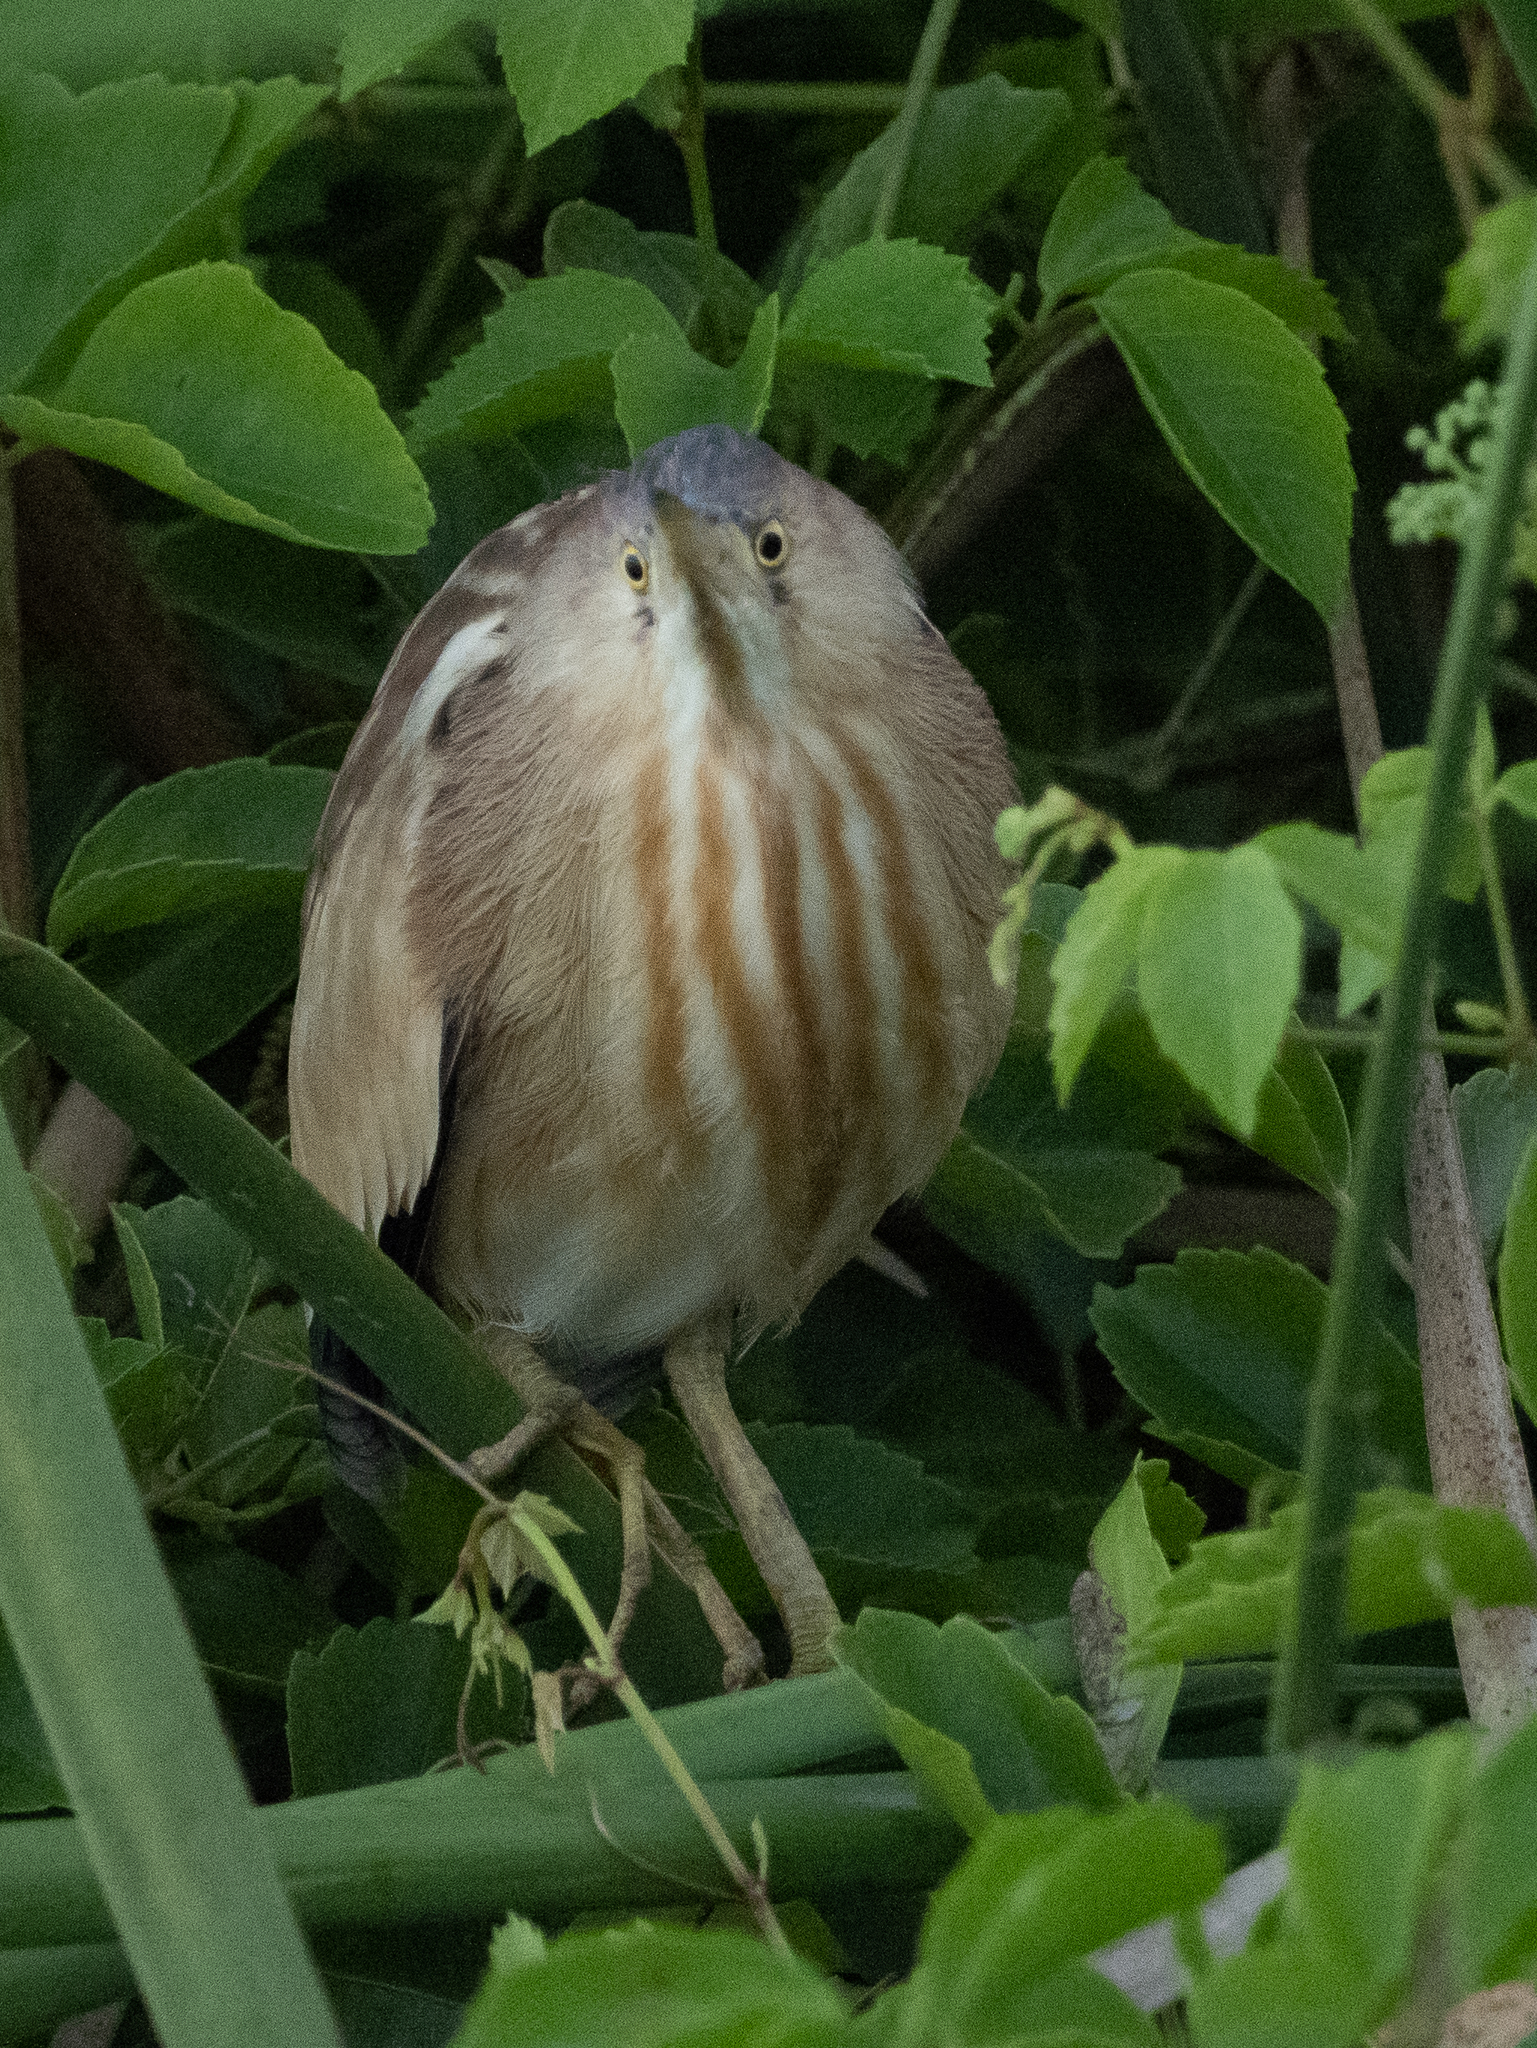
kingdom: Animalia
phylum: Chordata
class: Aves
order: Pelecaniformes
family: Ardeidae
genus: Ixobrychus
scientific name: Ixobrychus sinensis
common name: Yellow bittern
